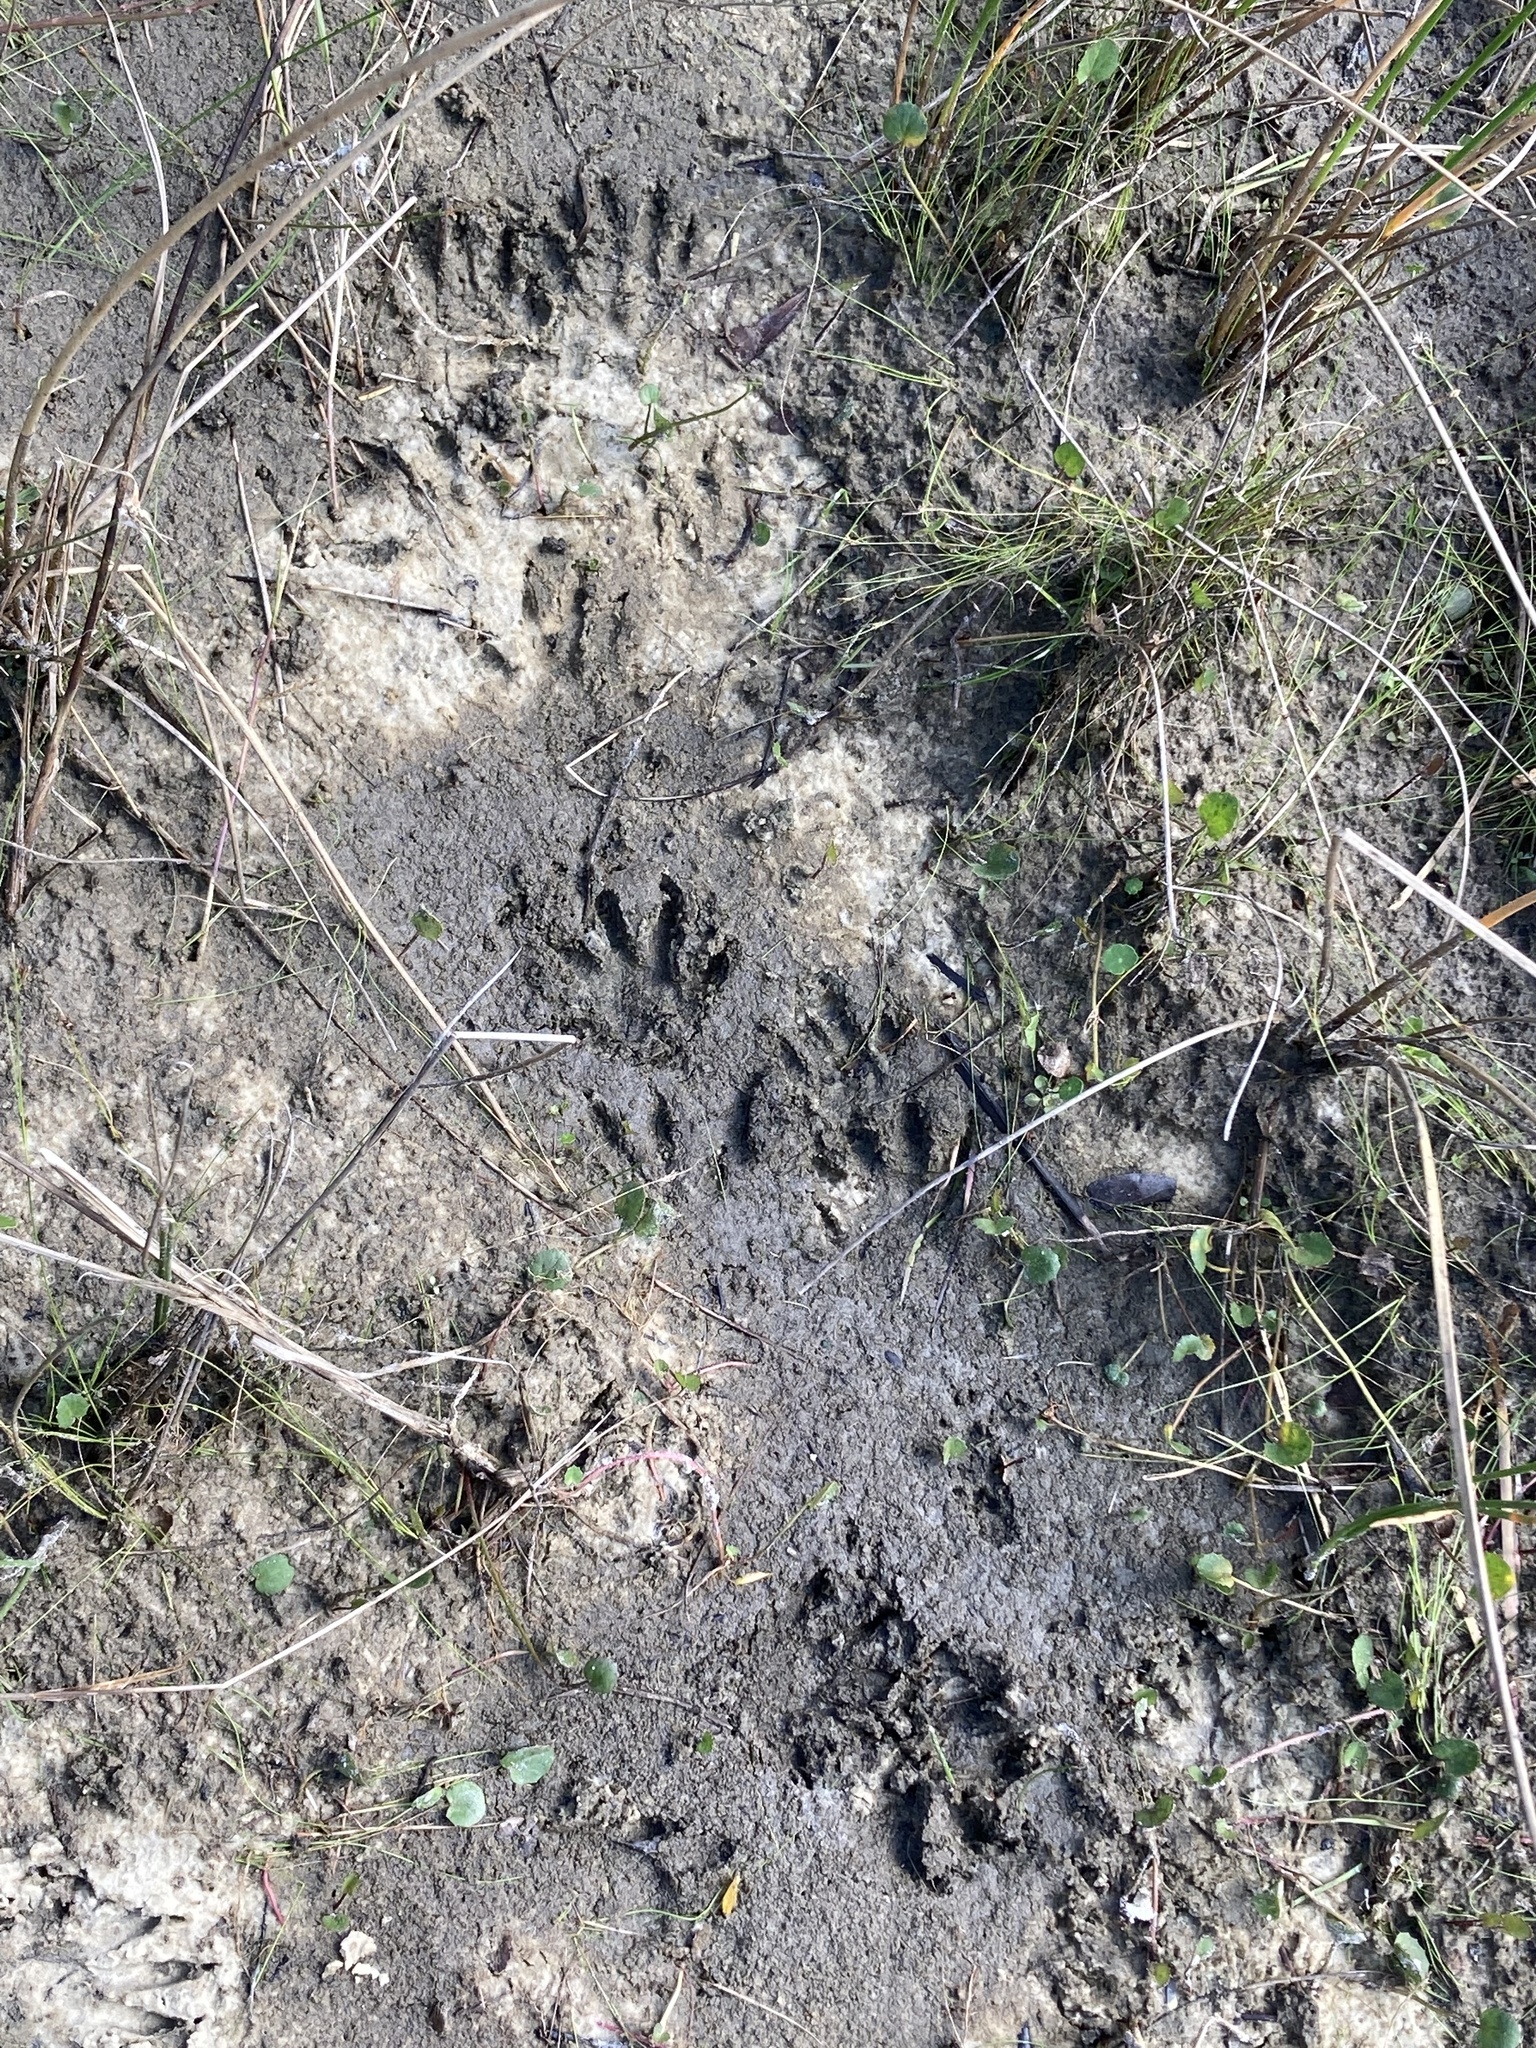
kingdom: Animalia
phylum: Chordata
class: Mammalia
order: Carnivora
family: Procyonidae
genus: Procyon
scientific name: Procyon lotor
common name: Raccoon
